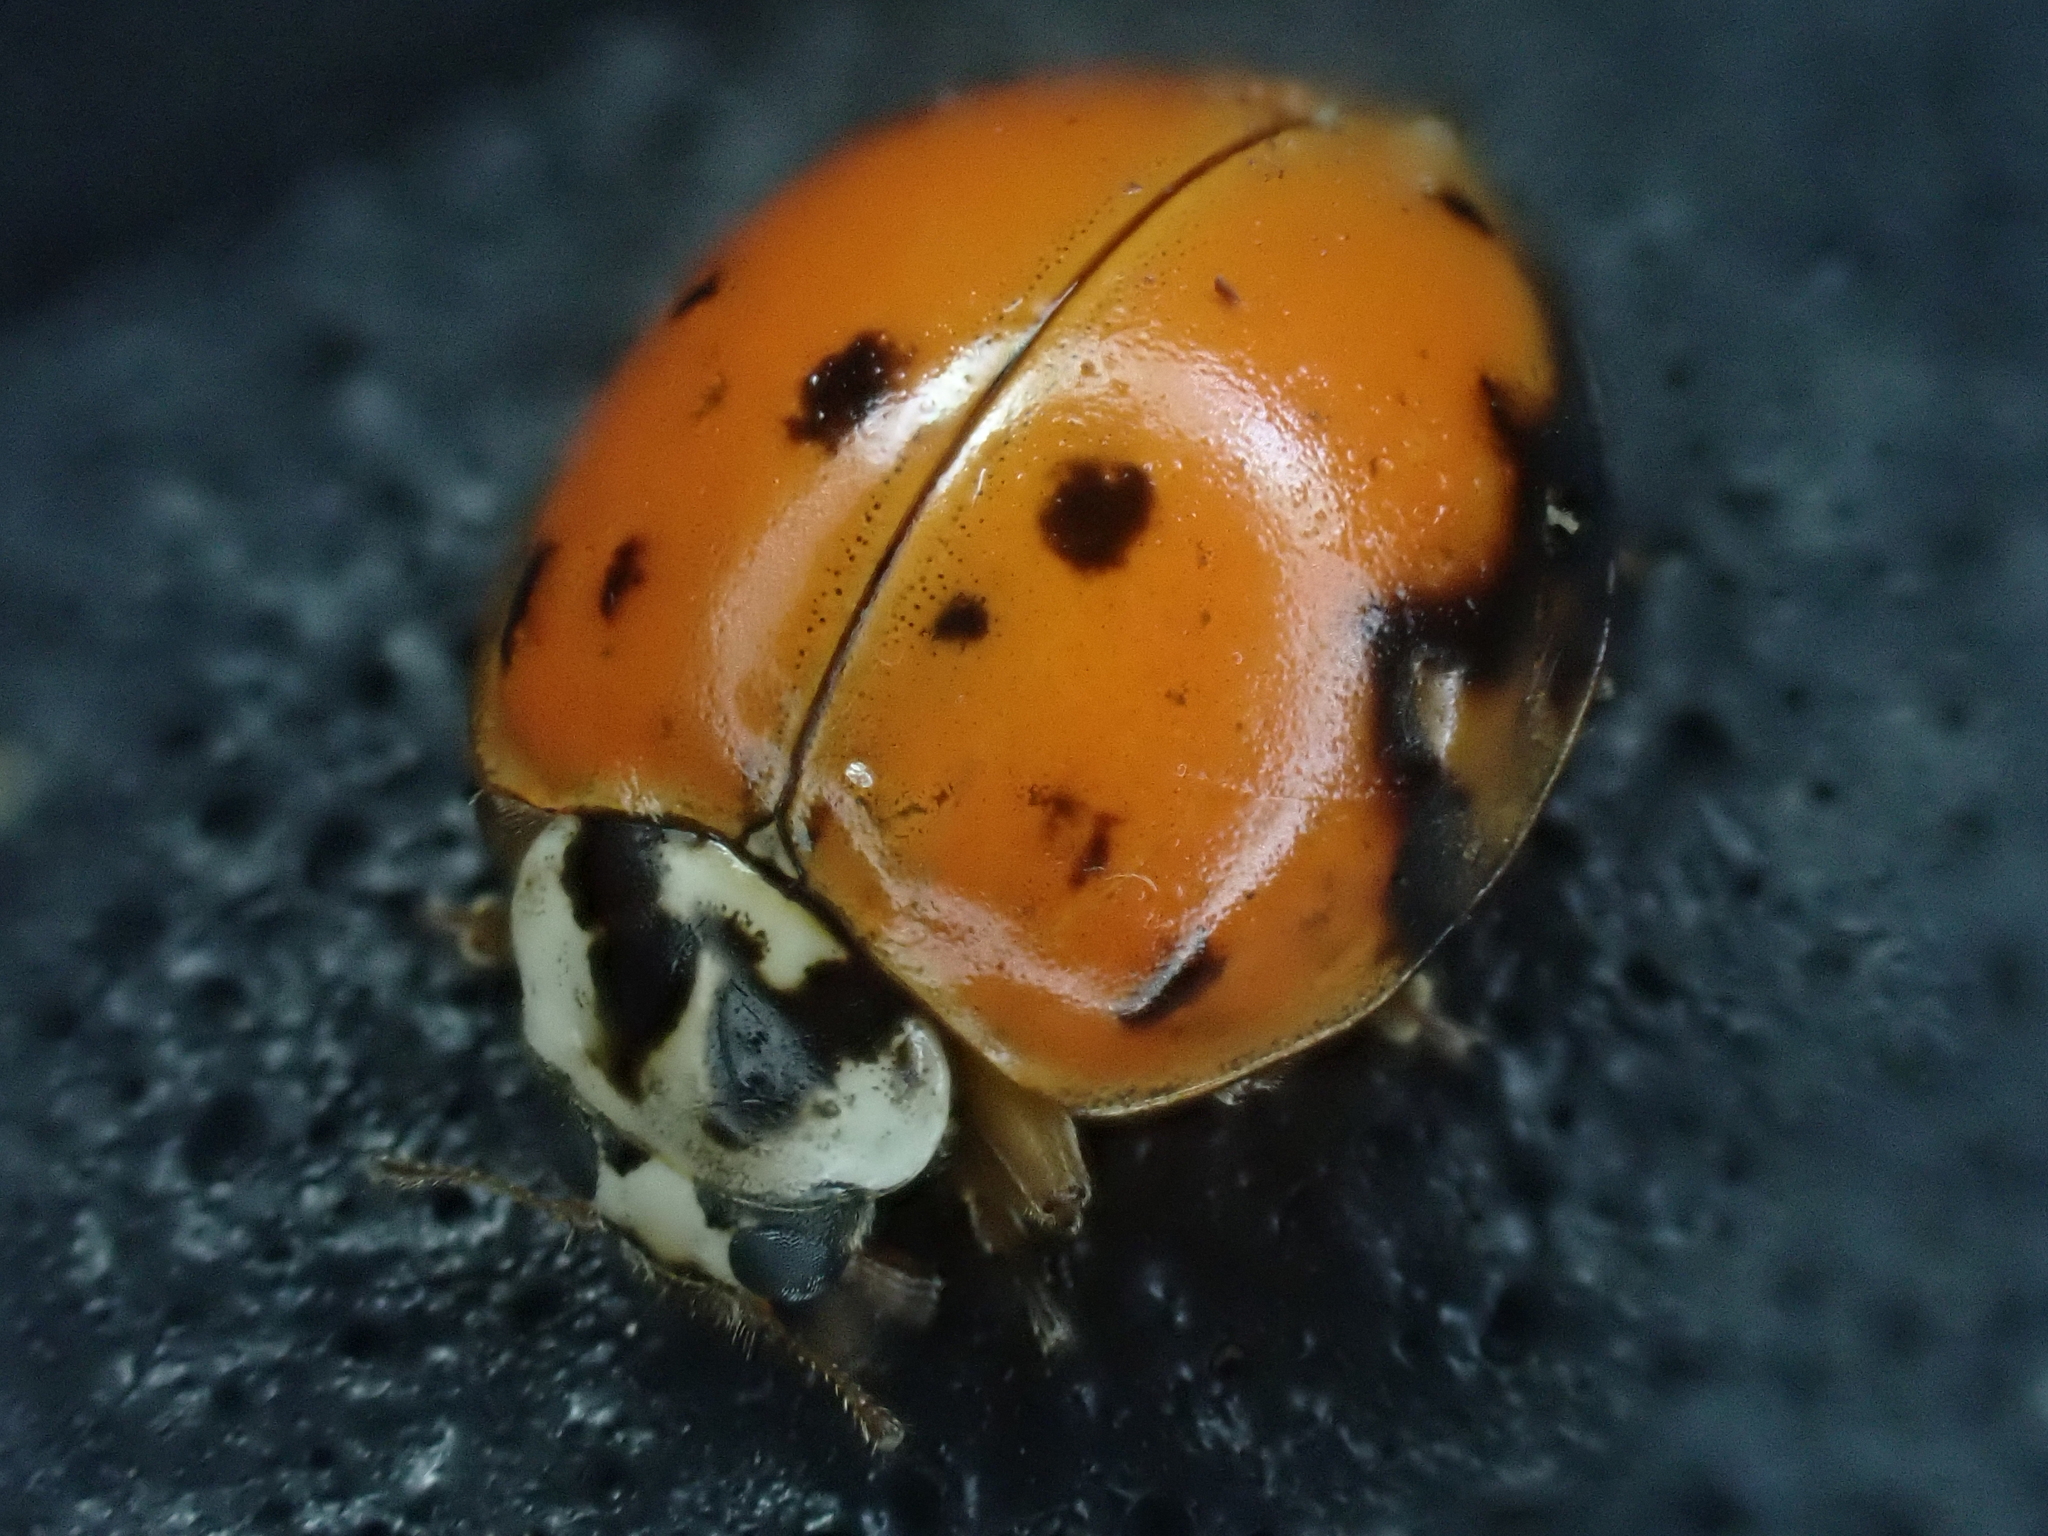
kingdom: Animalia
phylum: Arthropoda
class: Insecta
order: Coleoptera
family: Coccinellidae
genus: Harmonia
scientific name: Harmonia axyridis
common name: Harlequin ladybird
